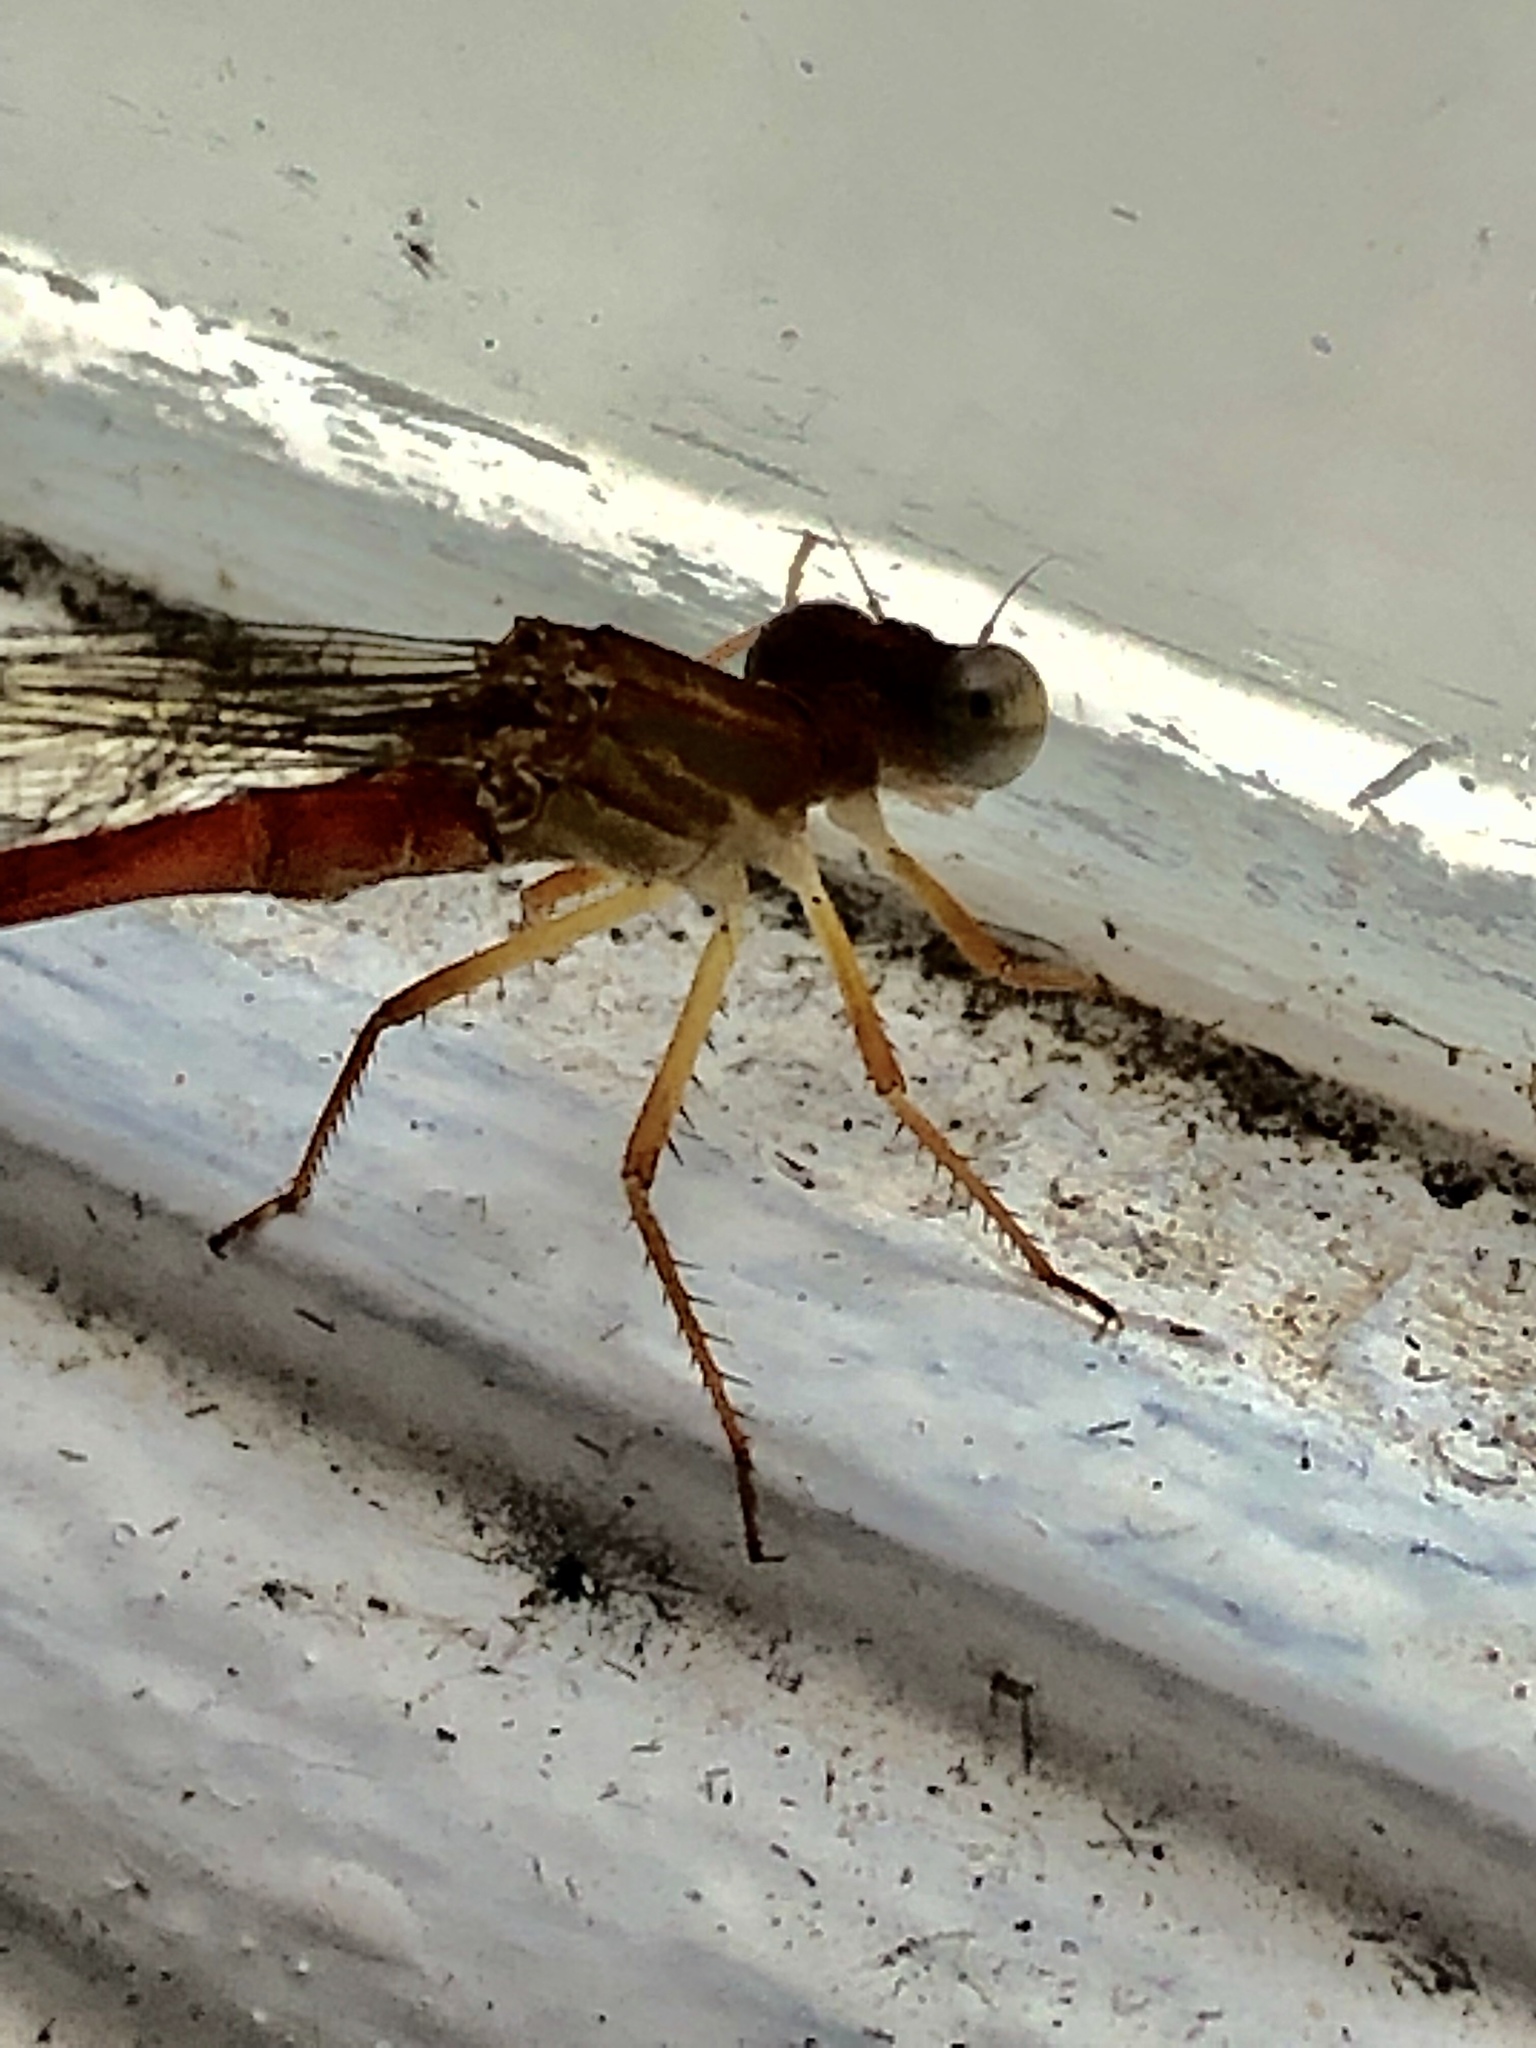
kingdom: Animalia
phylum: Arthropoda
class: Insecta
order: Odonata
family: Coenagrionidae
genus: Ceriagrion
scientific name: Ceriagrion glabrum
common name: Common pond damsel
